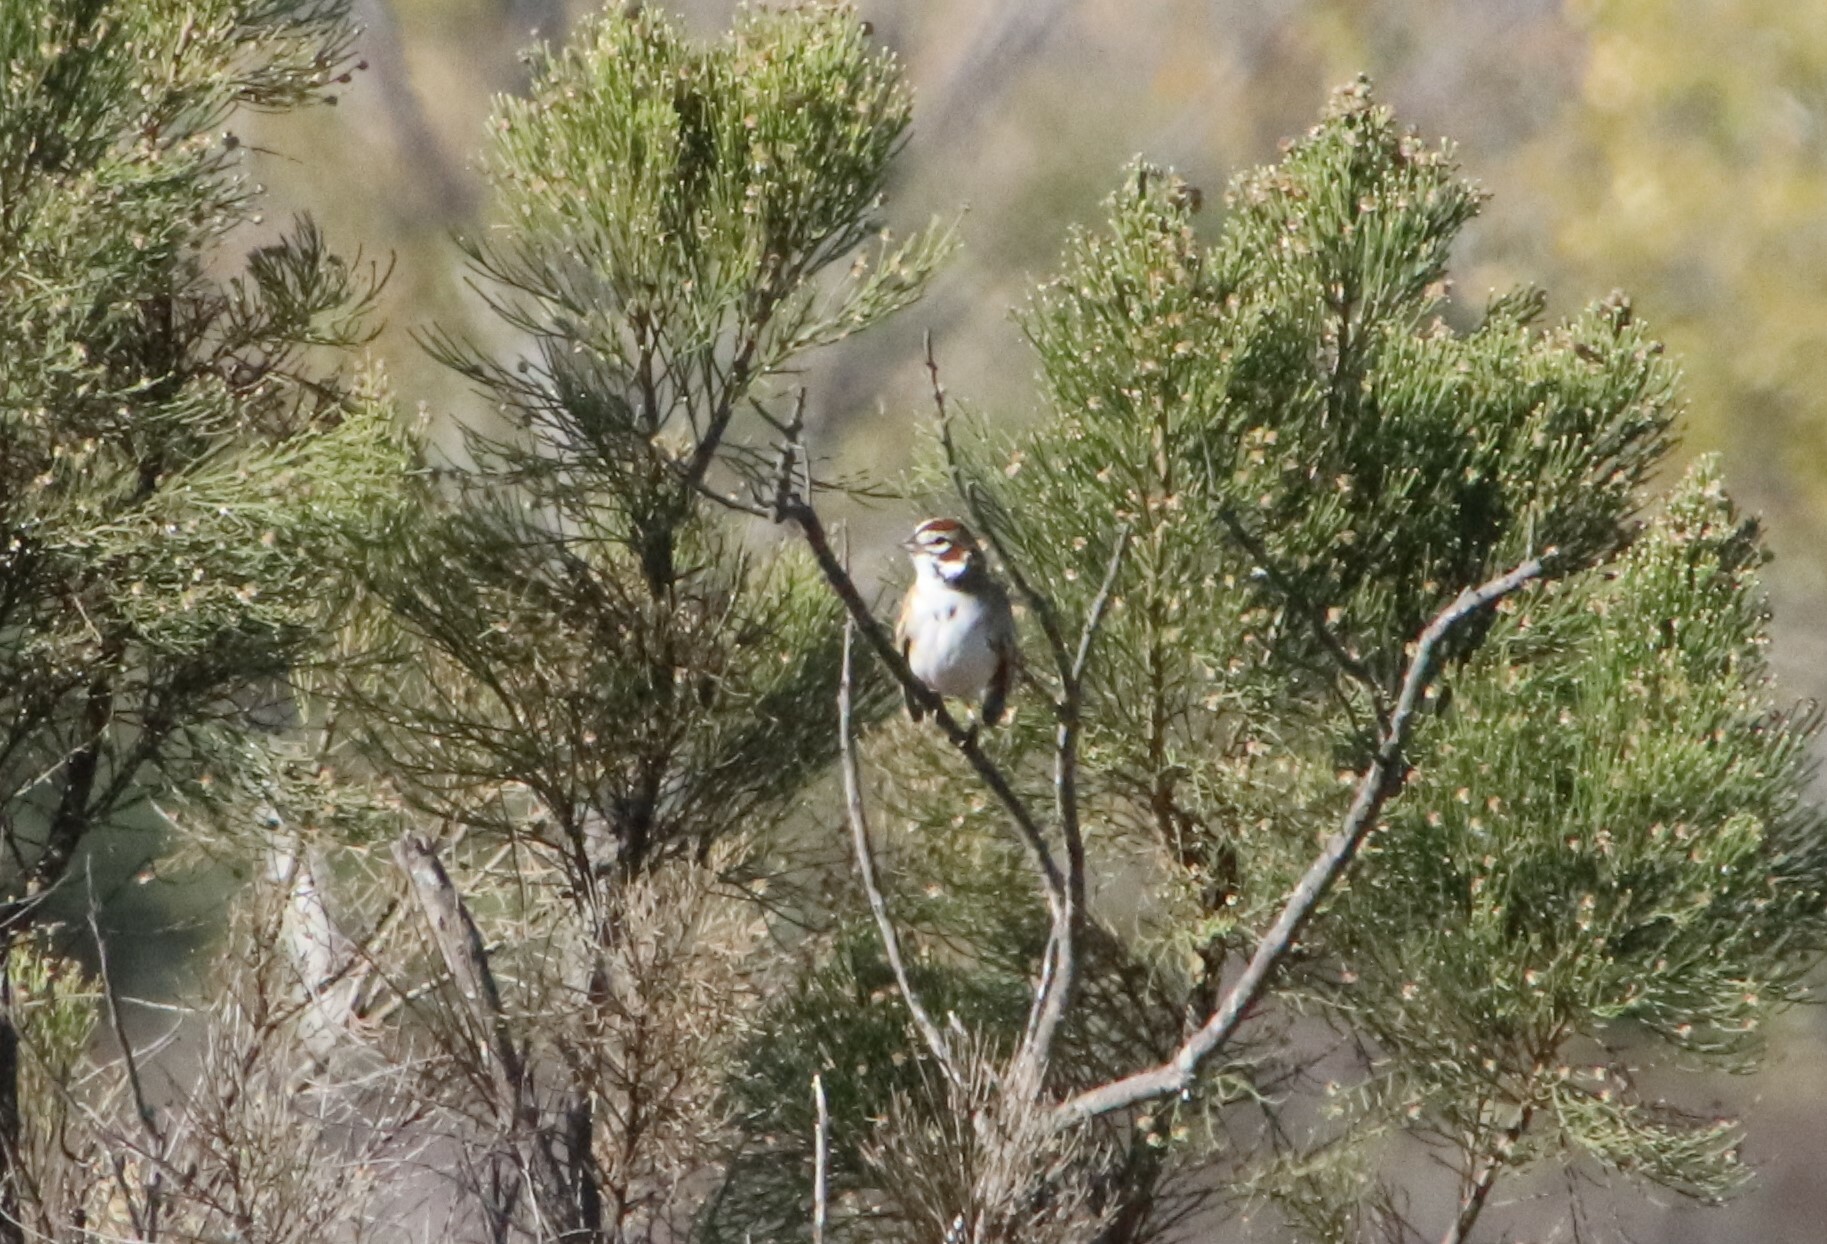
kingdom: Animalia
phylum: Chordata
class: Aves
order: Passeriformes
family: Passerellidae
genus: Chondestes
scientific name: Chondestes grammacus
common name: Lark sparrow
